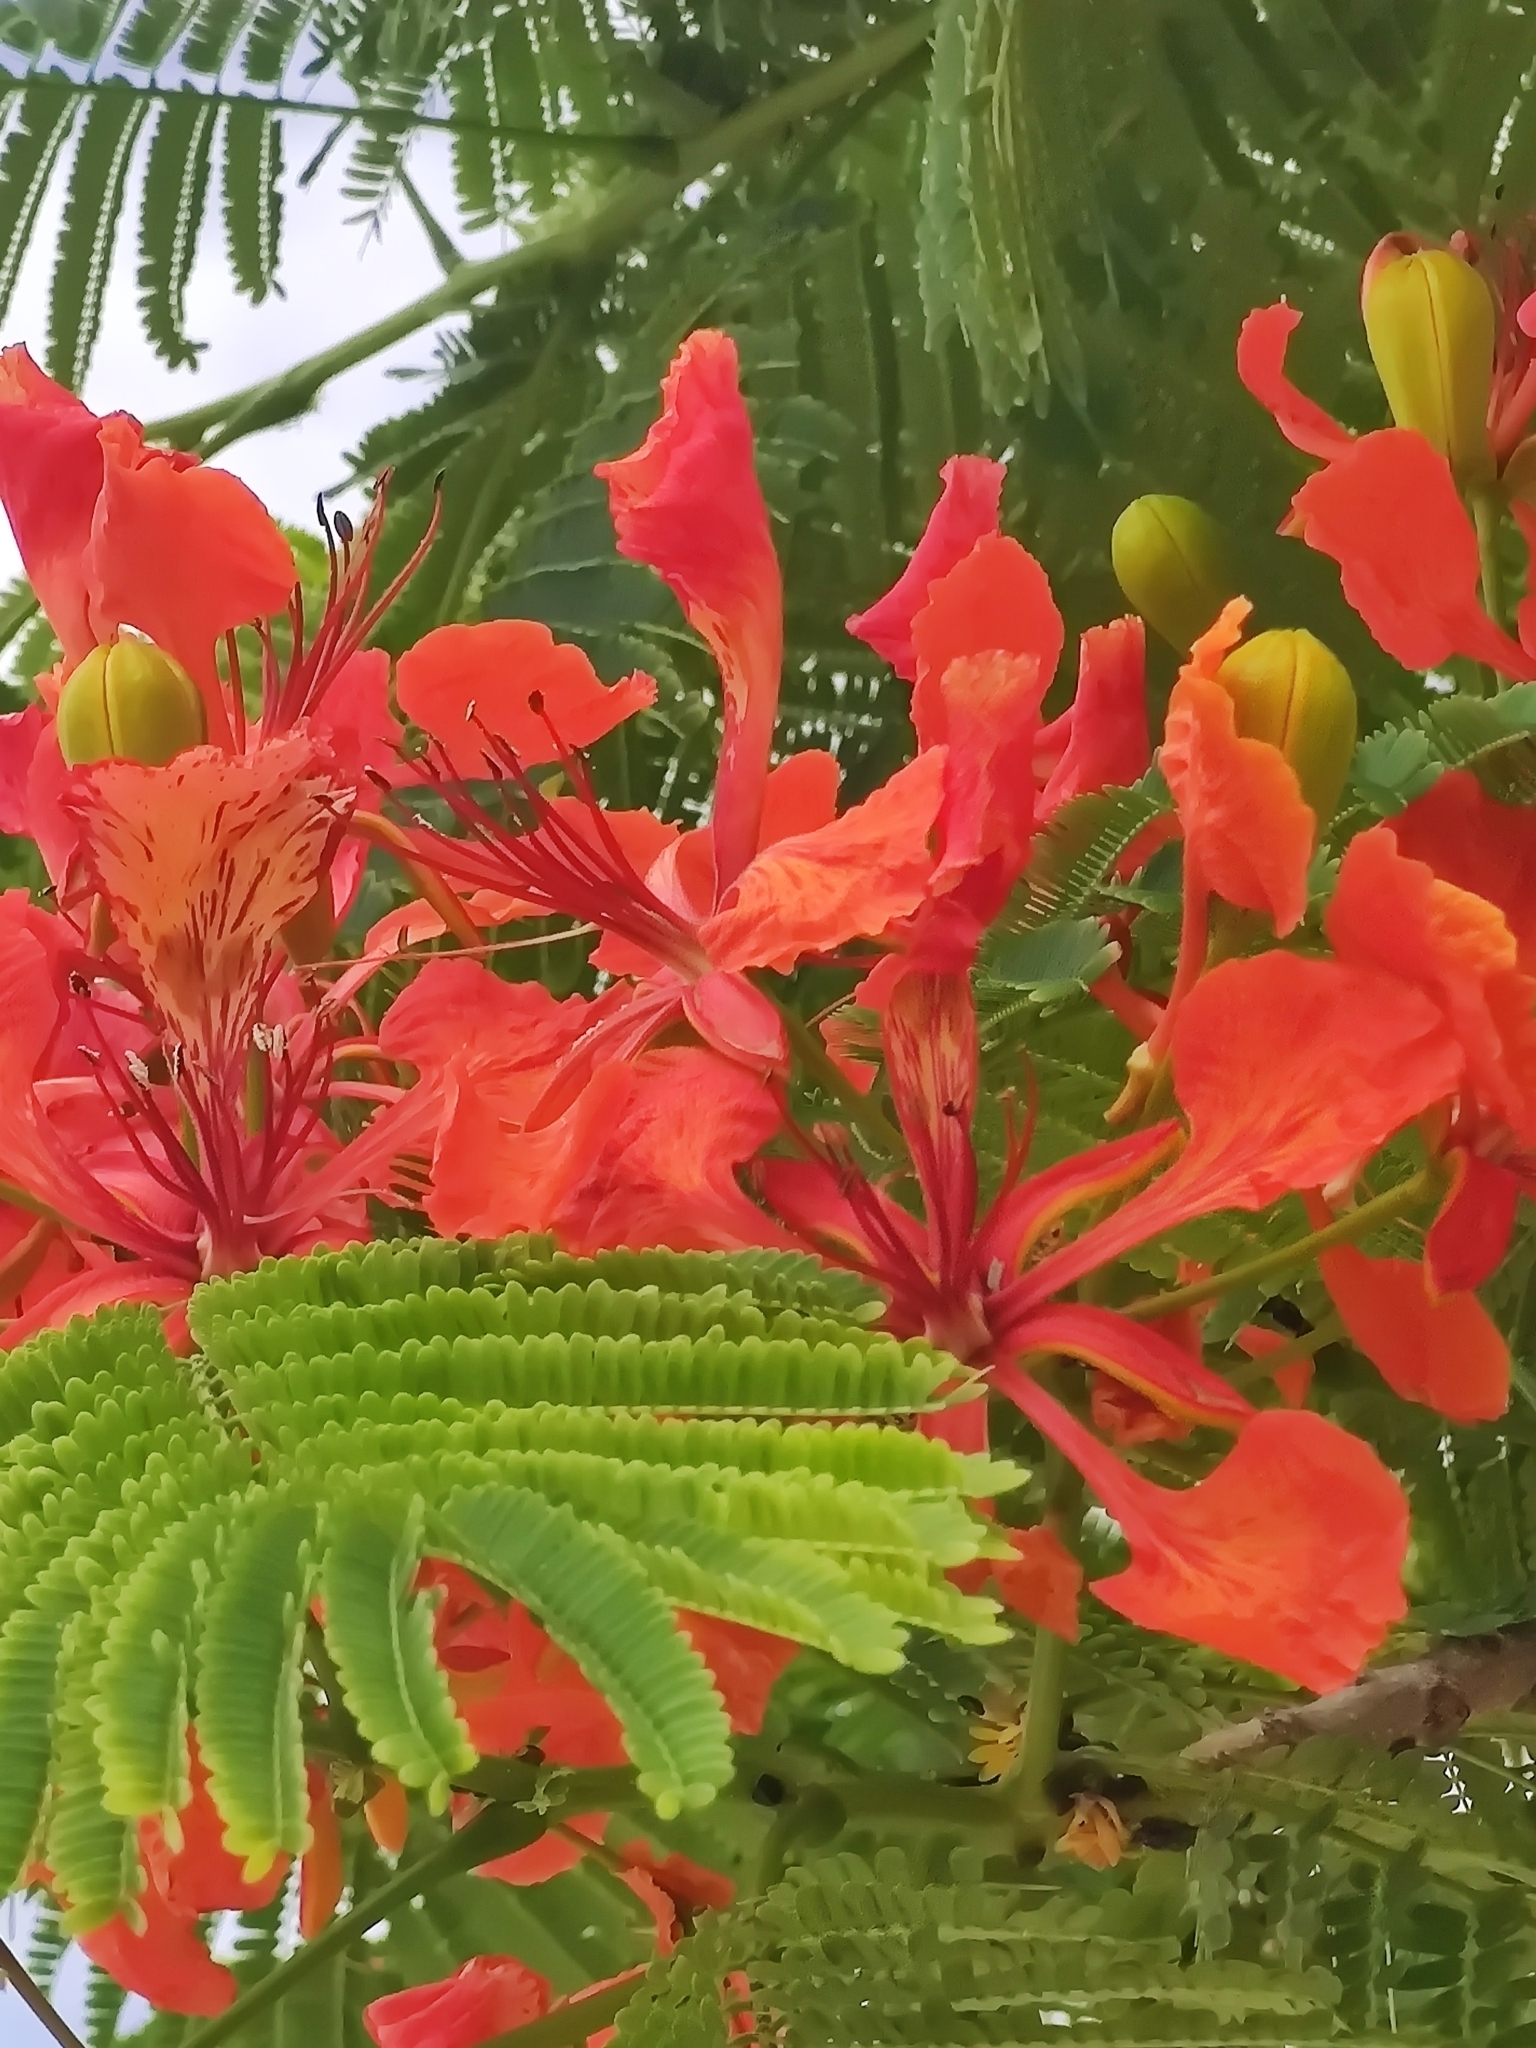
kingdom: Plantae
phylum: Tracheophyta
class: Magnoliopsida
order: Fabales
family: Fabaceae
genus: Delonix
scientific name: Delonix regia
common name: Royal poinciana
